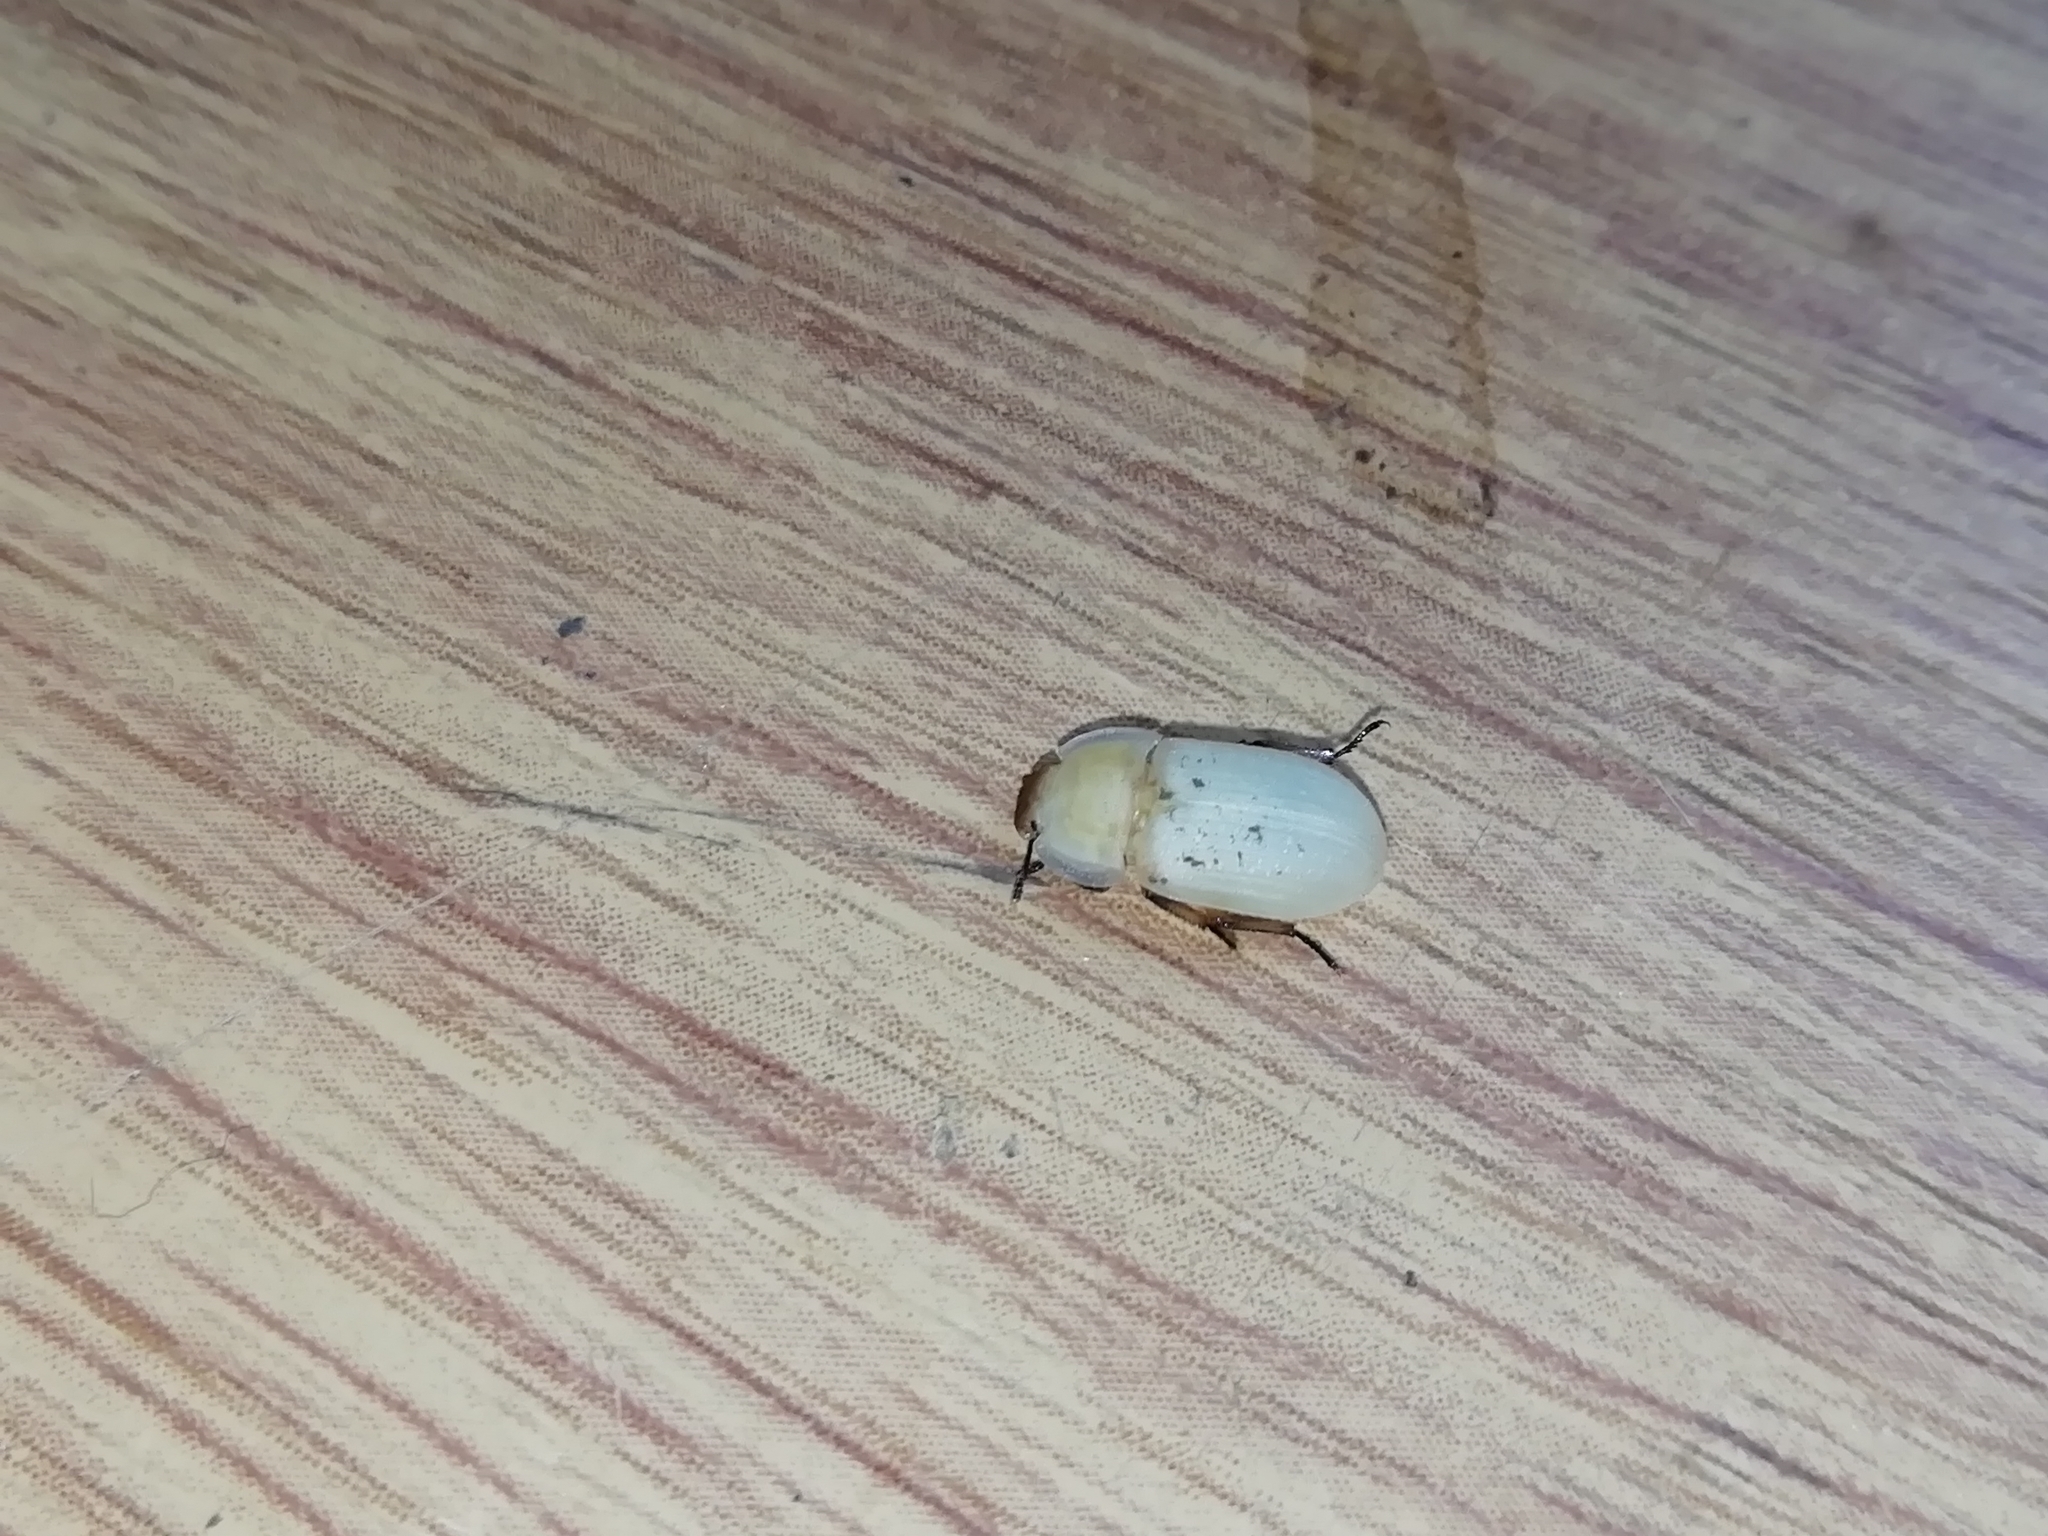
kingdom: Animalia
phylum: Arthropoda
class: Insecta
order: Coleoptera
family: Tenebrionidae
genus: Opatrum
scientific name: Opatrum sabulosum
